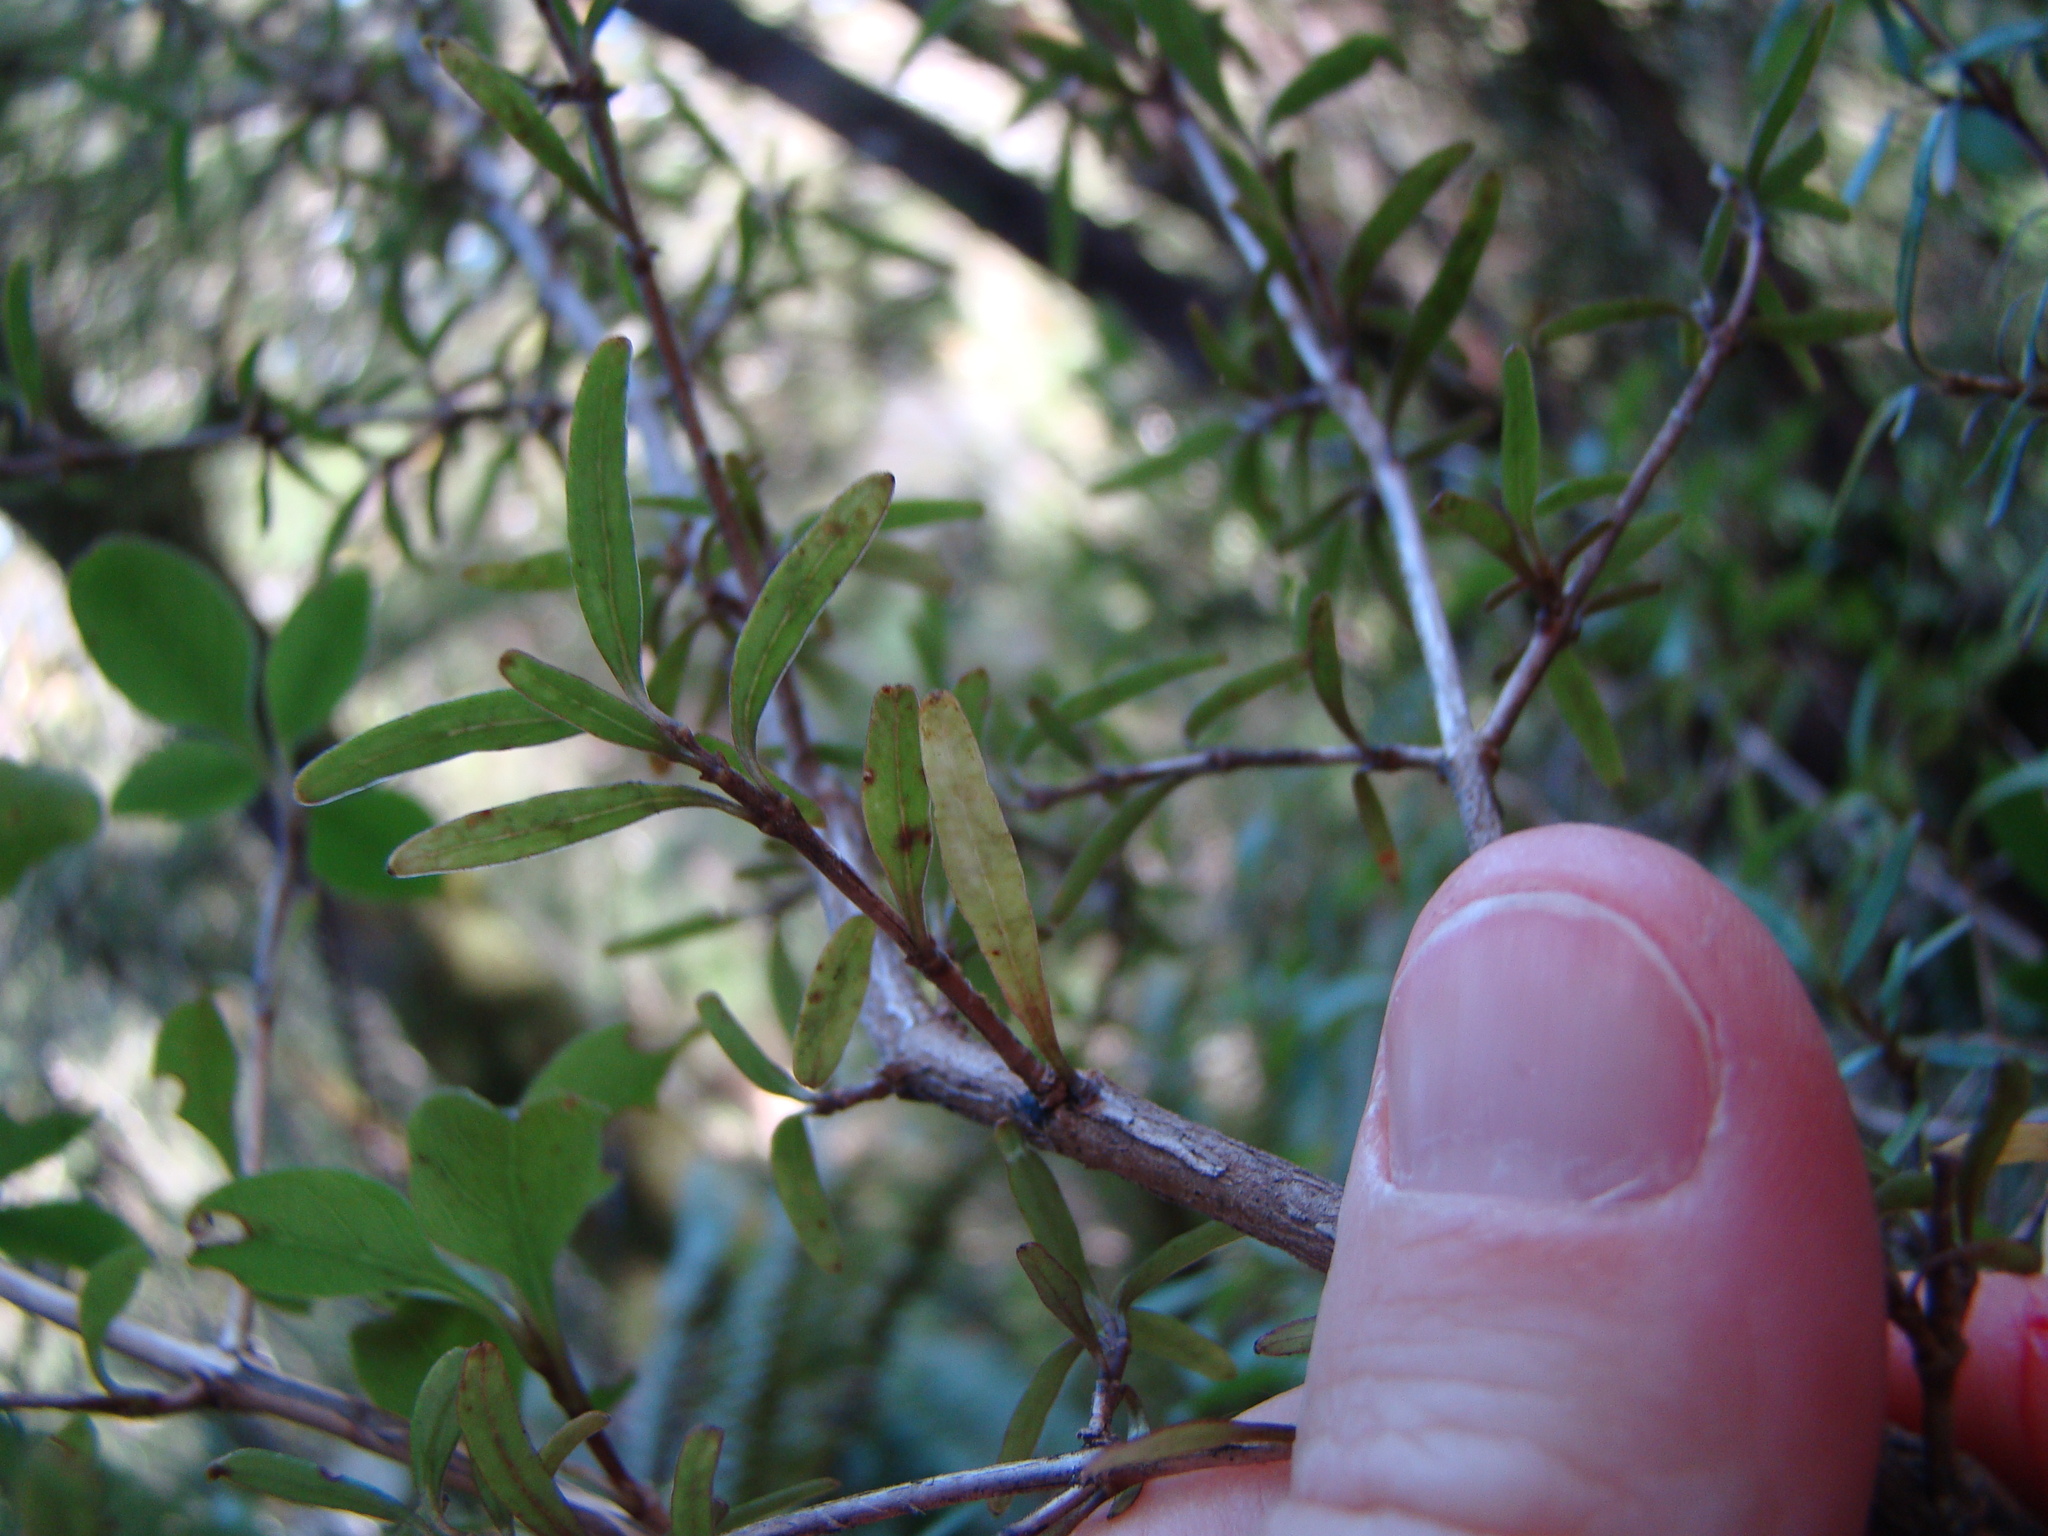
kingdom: Plantae
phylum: Tracheophyta
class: Magnoliopsida
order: Gentianales
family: Rubiaceae
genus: Coprosma
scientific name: Coprosma linariifolia
